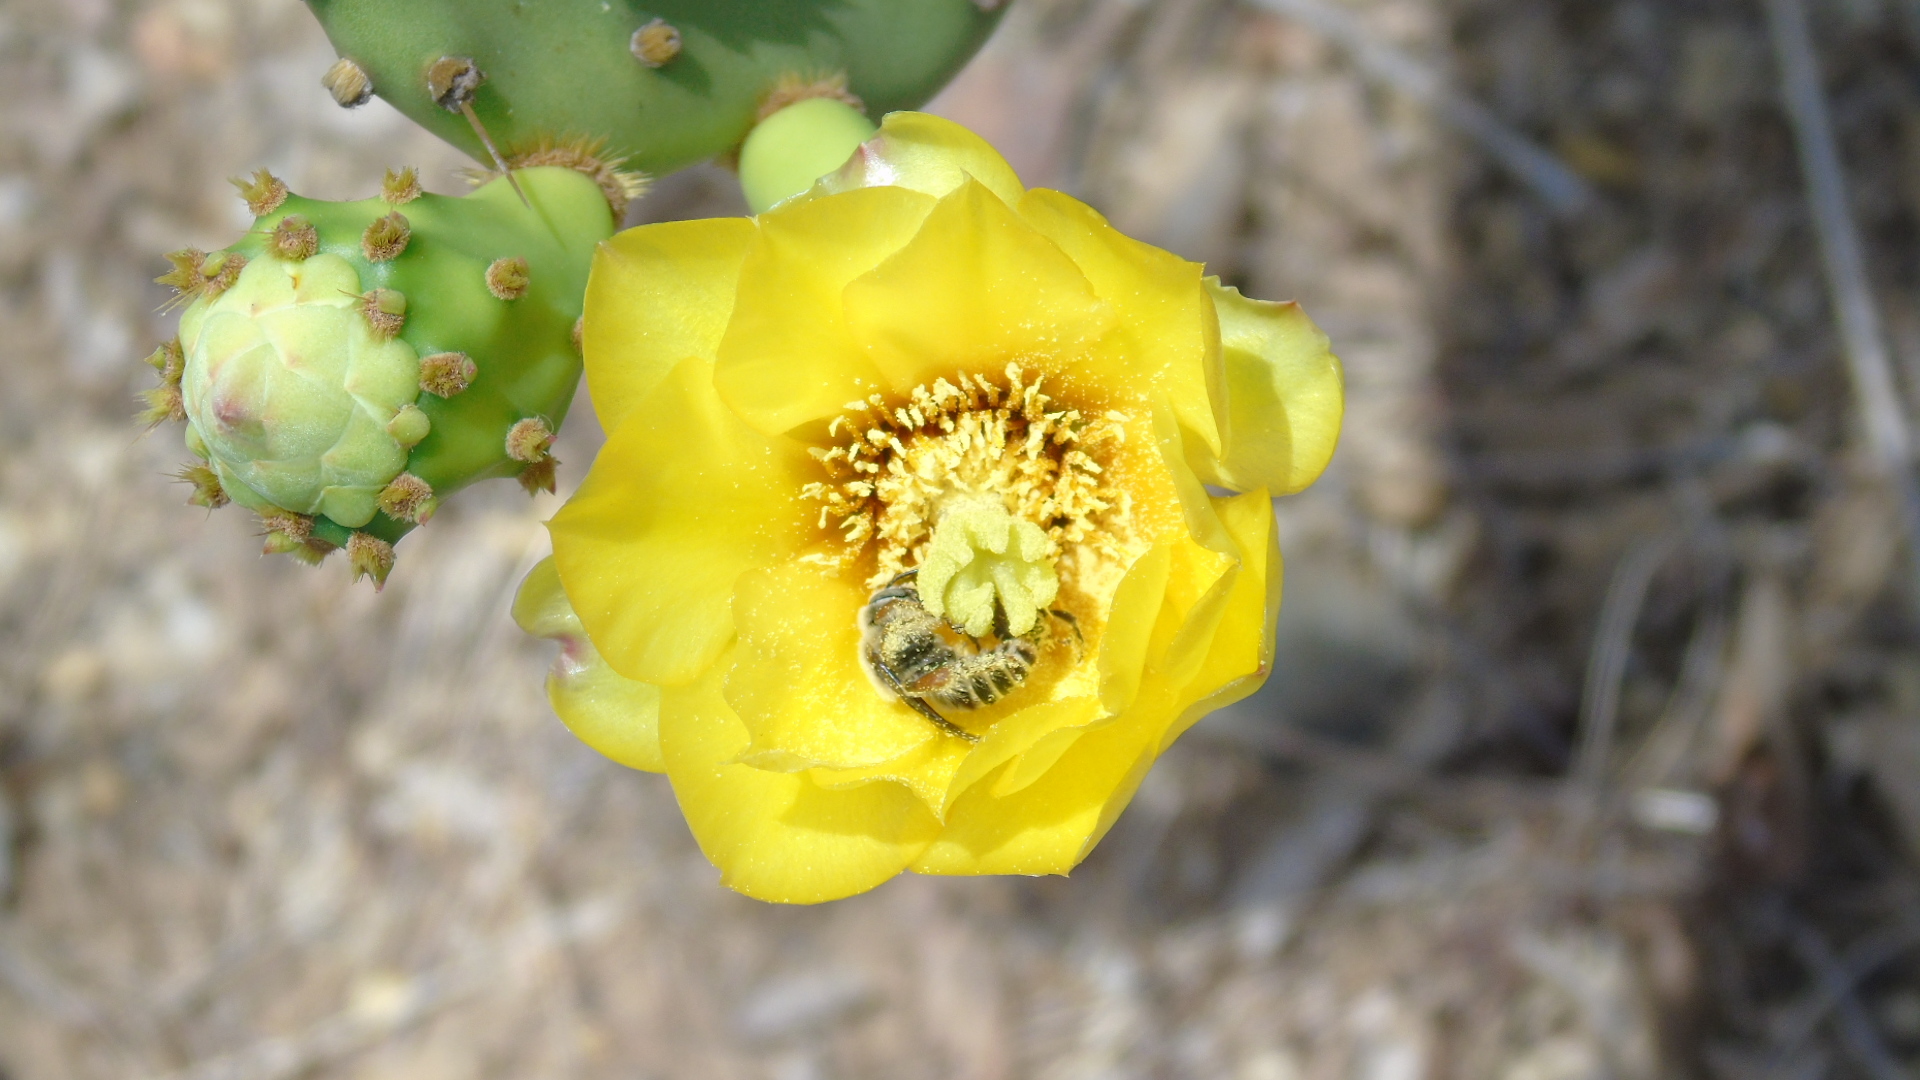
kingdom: Animalia
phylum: Arthropoda
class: Insecta
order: Hymenoptera
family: Apidae
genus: Apidae
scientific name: Apidae
